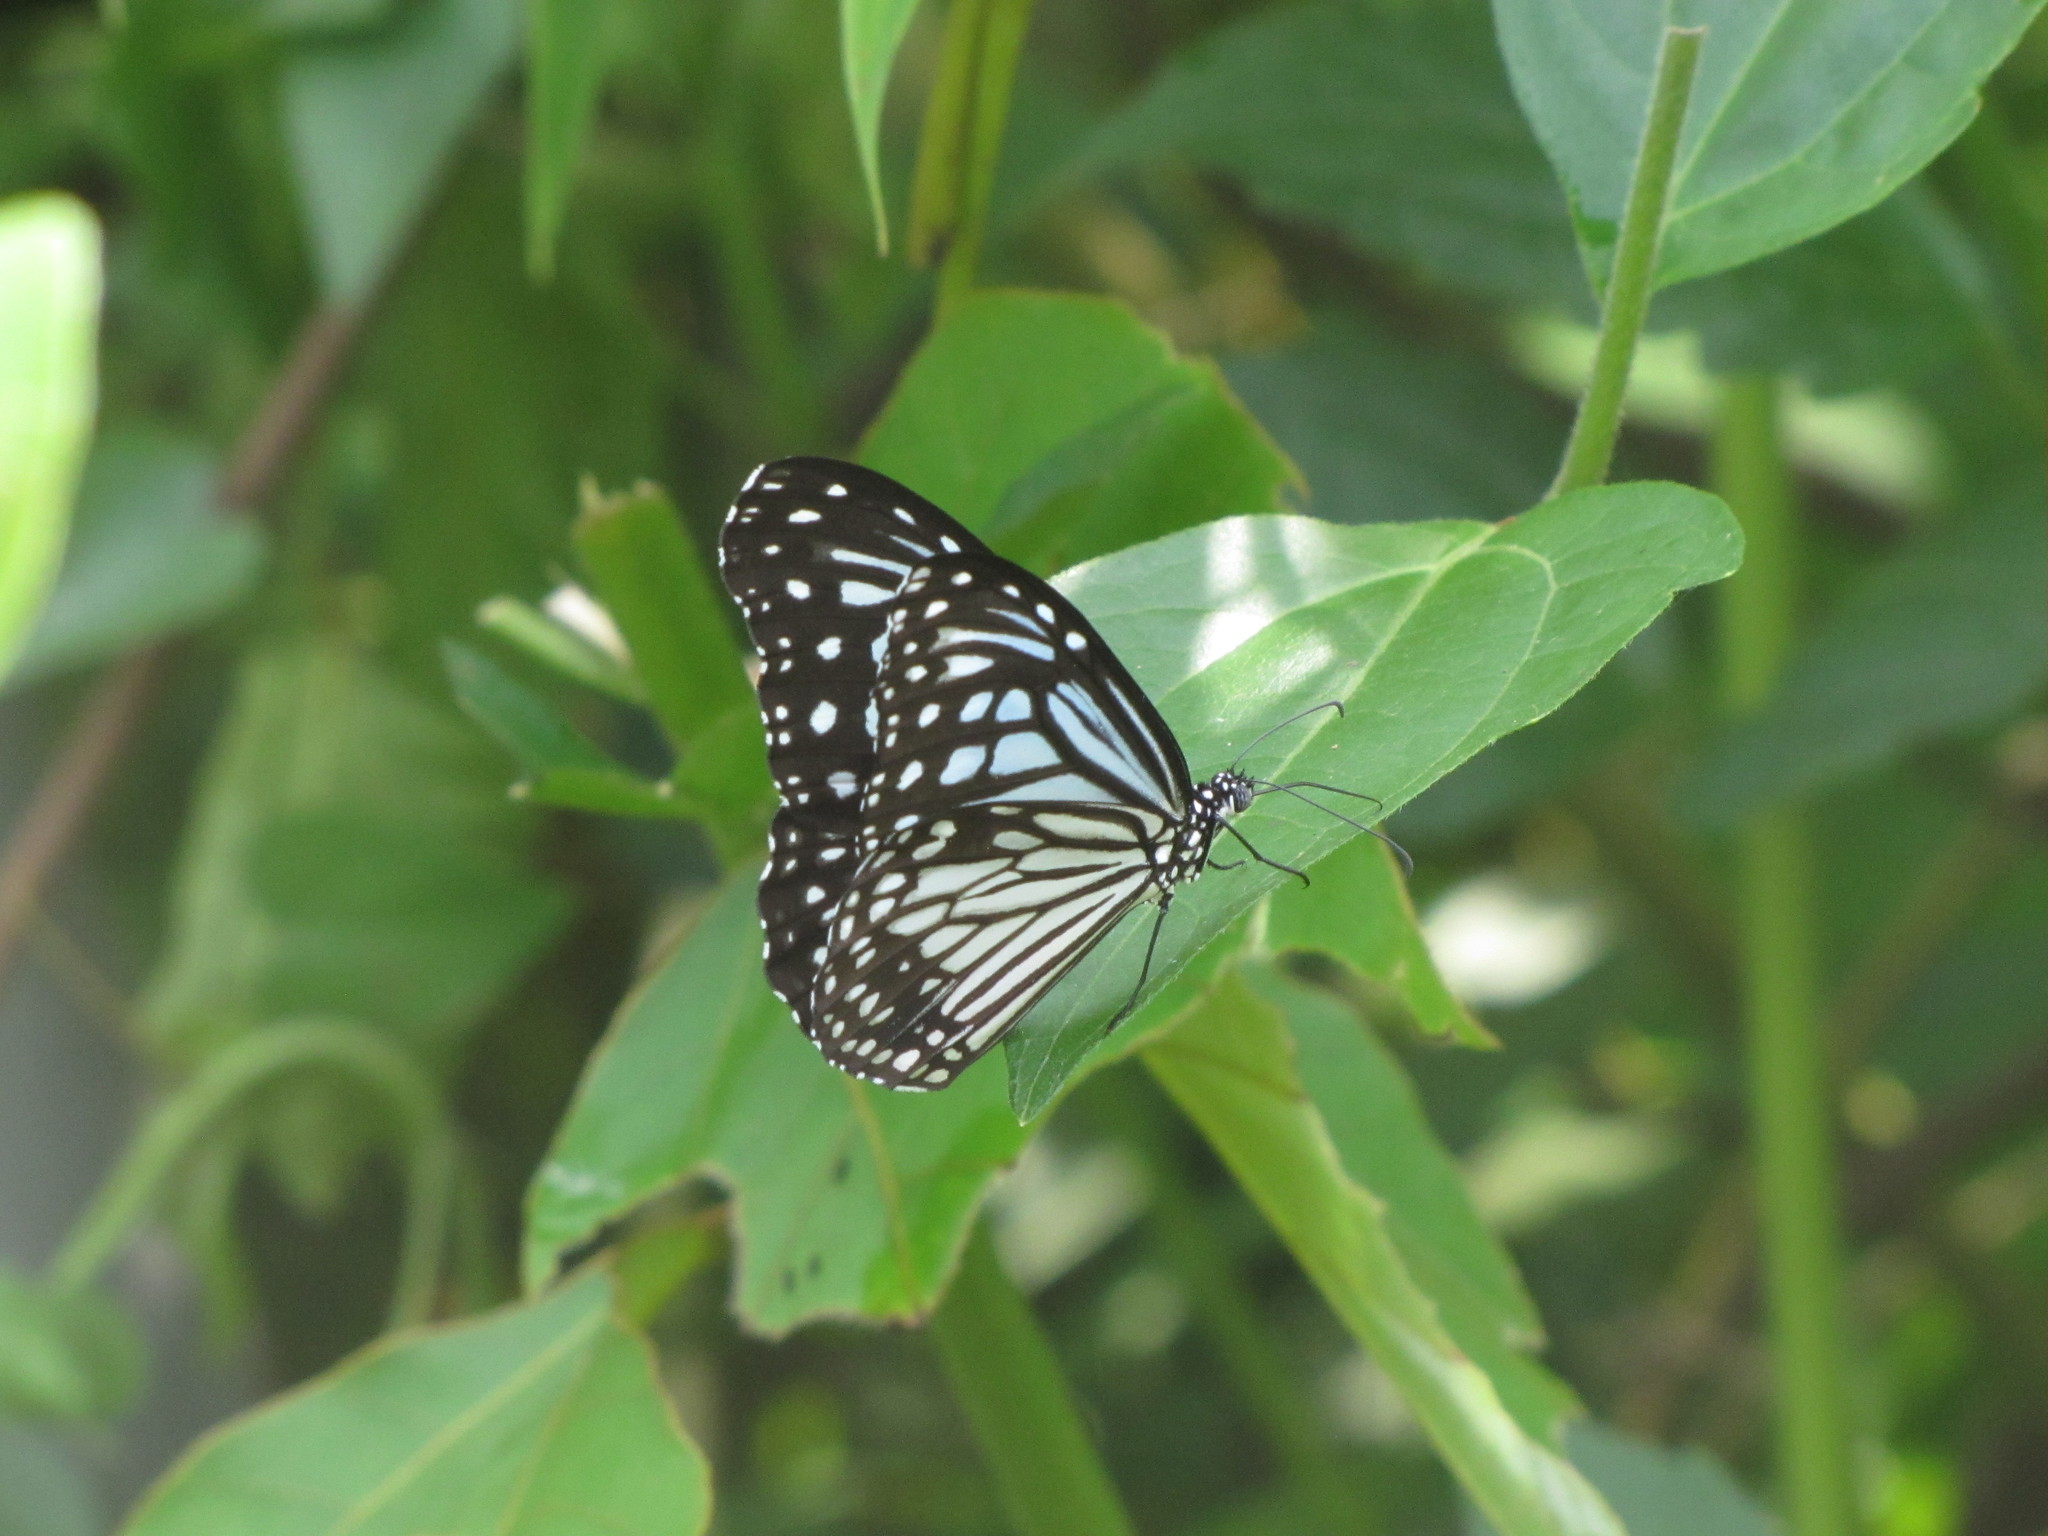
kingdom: Animalia
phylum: Arthropoda
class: Insecta
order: Lepidoptera
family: Nymphalidae
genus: Parantica
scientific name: Parantica aglea
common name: Glassy tiger
